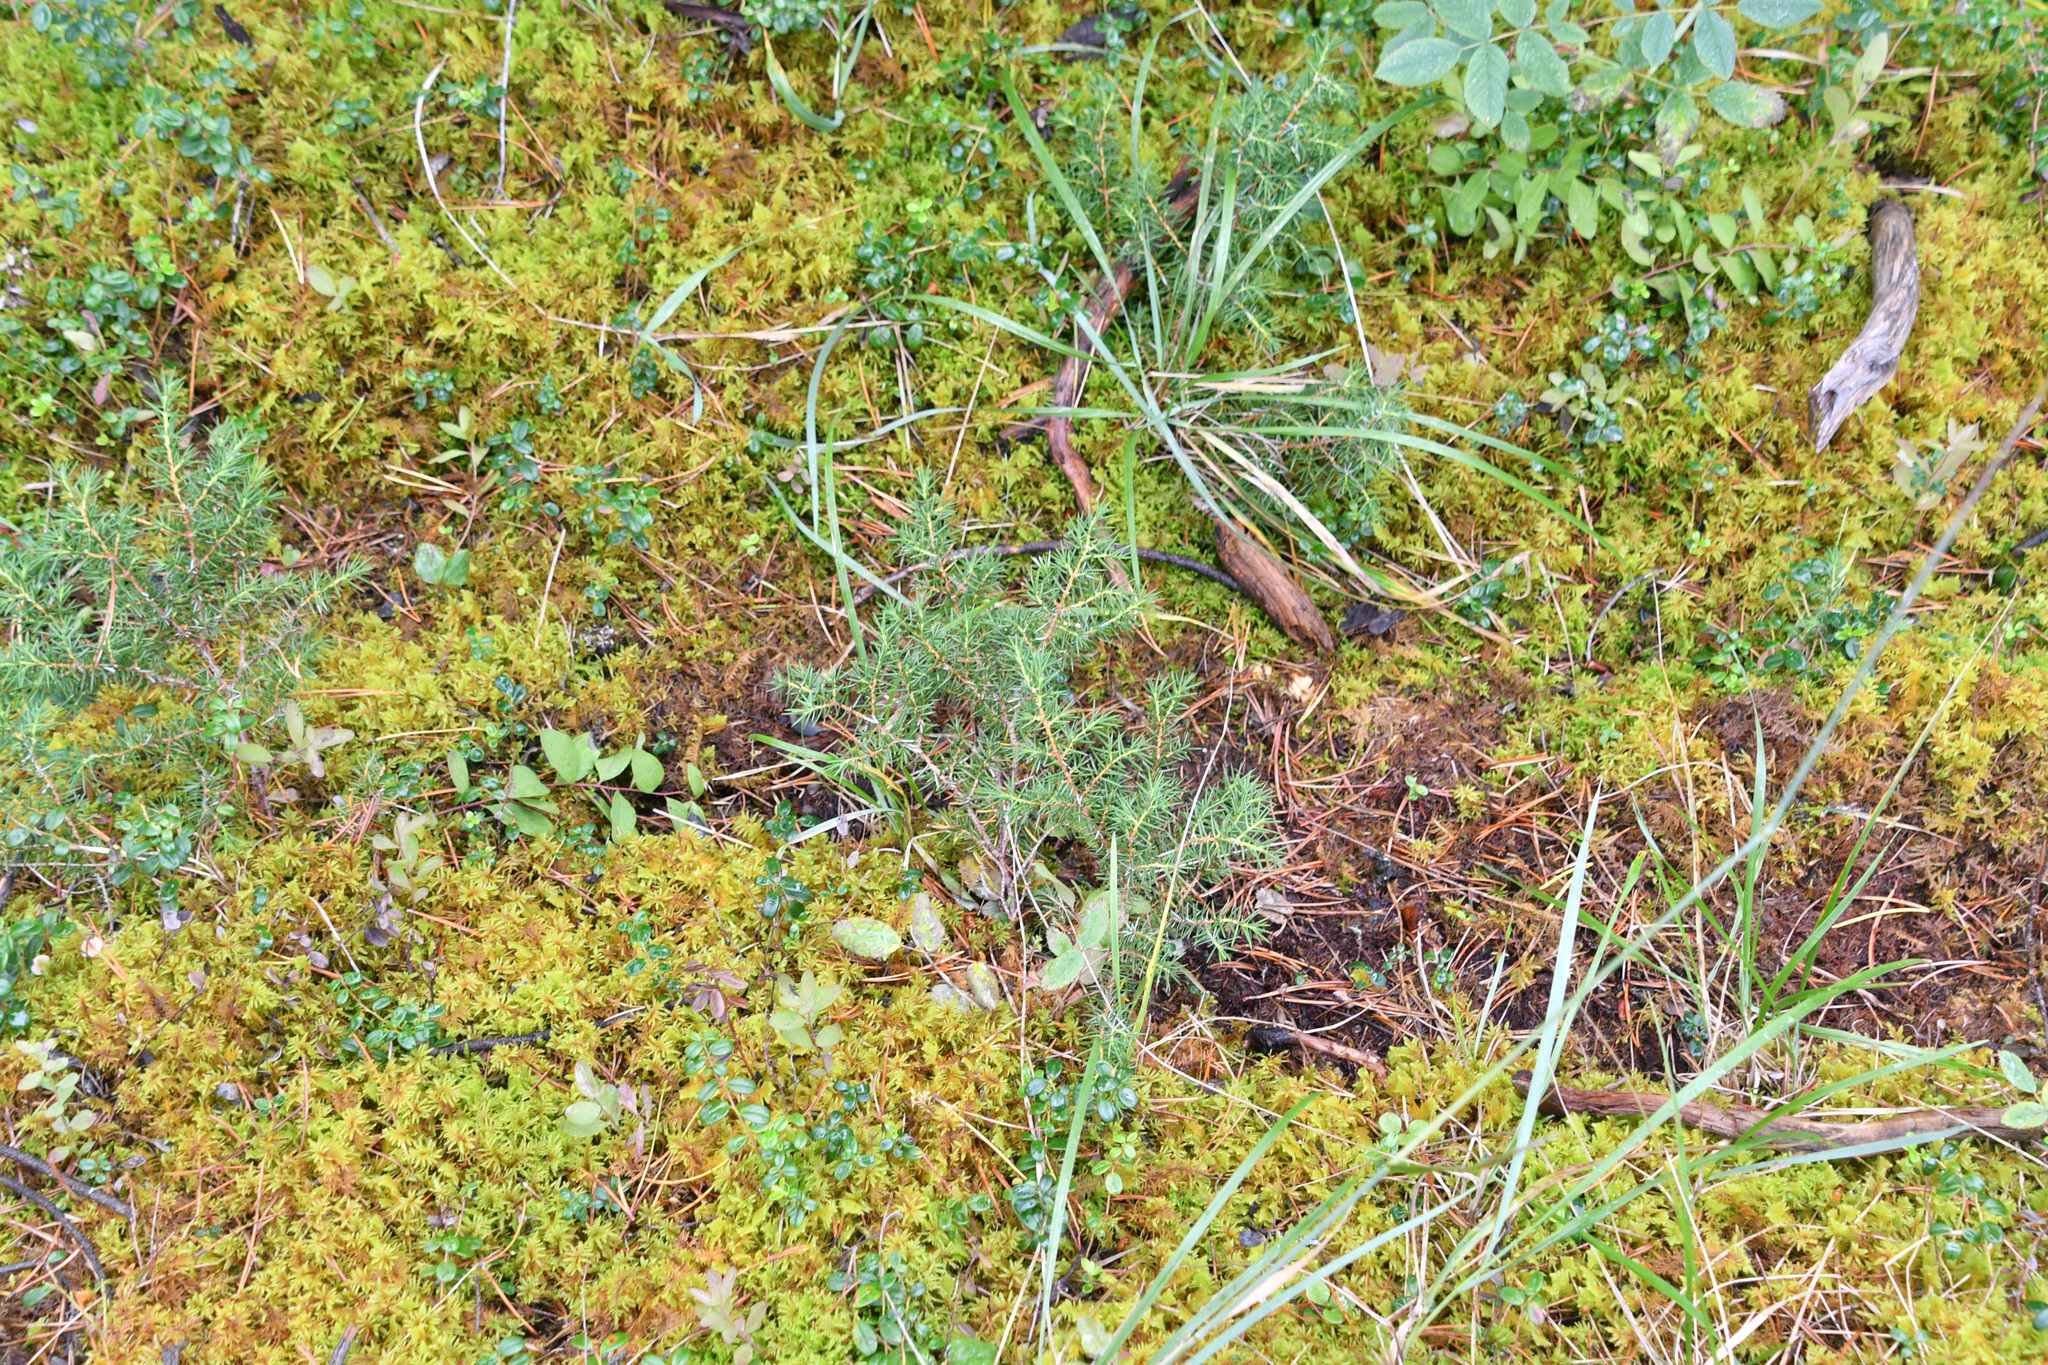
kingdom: Plantae
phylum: Tracheophyta
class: Pinopsida
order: Pinales
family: Cupressaceae
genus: Juniperus
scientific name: Juniperus communis
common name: Common juniper
